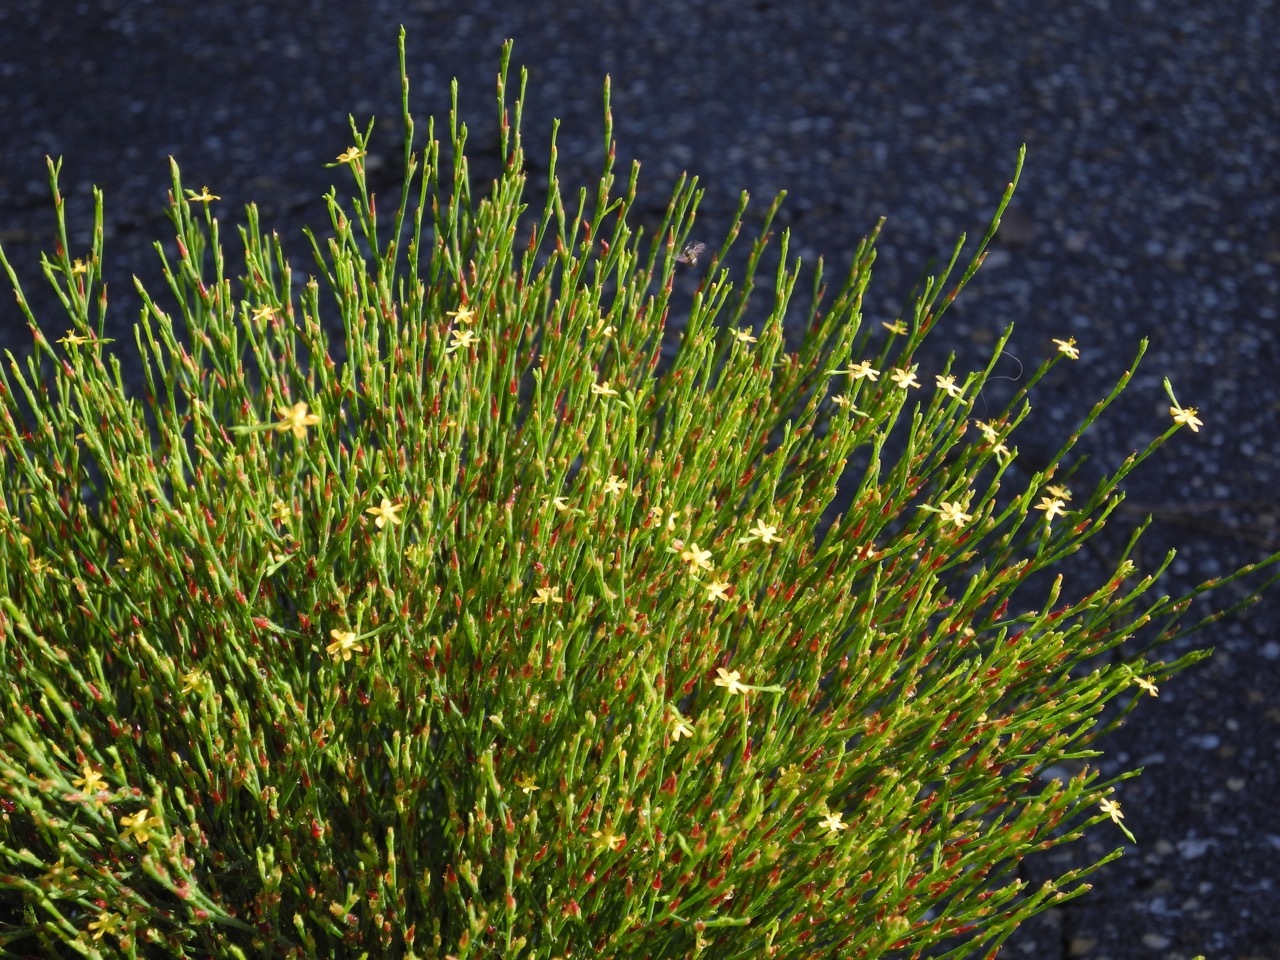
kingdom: Plantae
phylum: Tracheophyta
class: Magnoliopsida
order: Malpighiales
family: Hypericaceae
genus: Hypericum
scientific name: Hypericum gentianoides
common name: Gentian-leaved st. john's-wort
